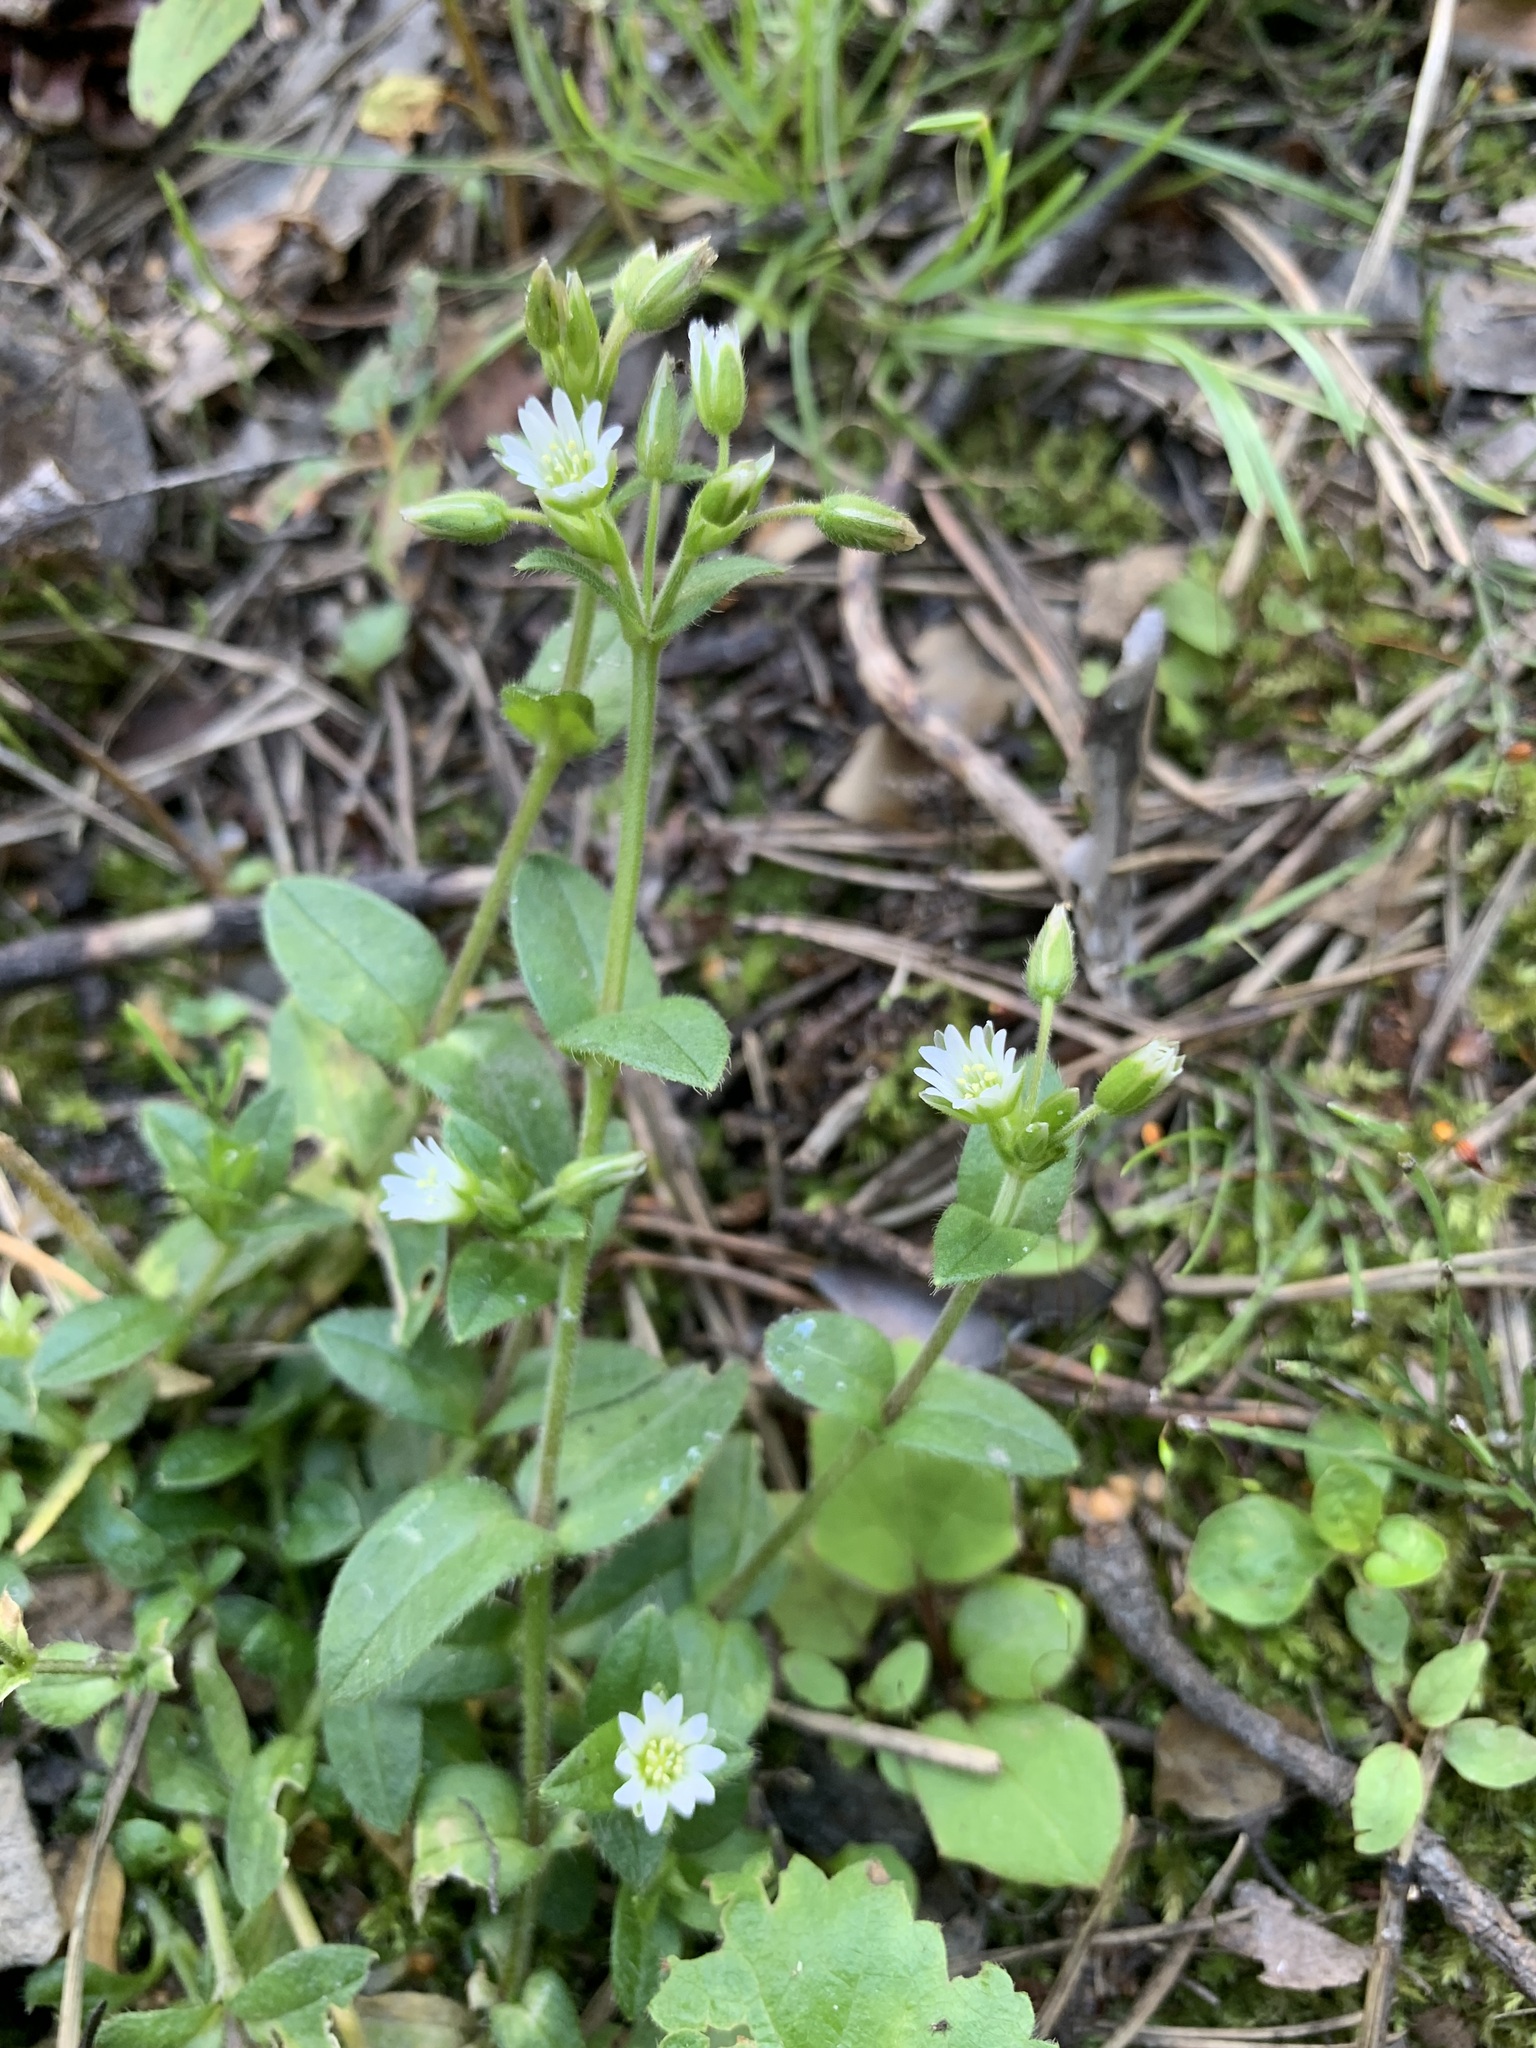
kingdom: Plantae
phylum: Tracheophyta
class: Magnoliopsida
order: Caryophyllales
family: Caryophyllaceae
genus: Cerastium
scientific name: Cerastium holosteoides
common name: Big chickweed
